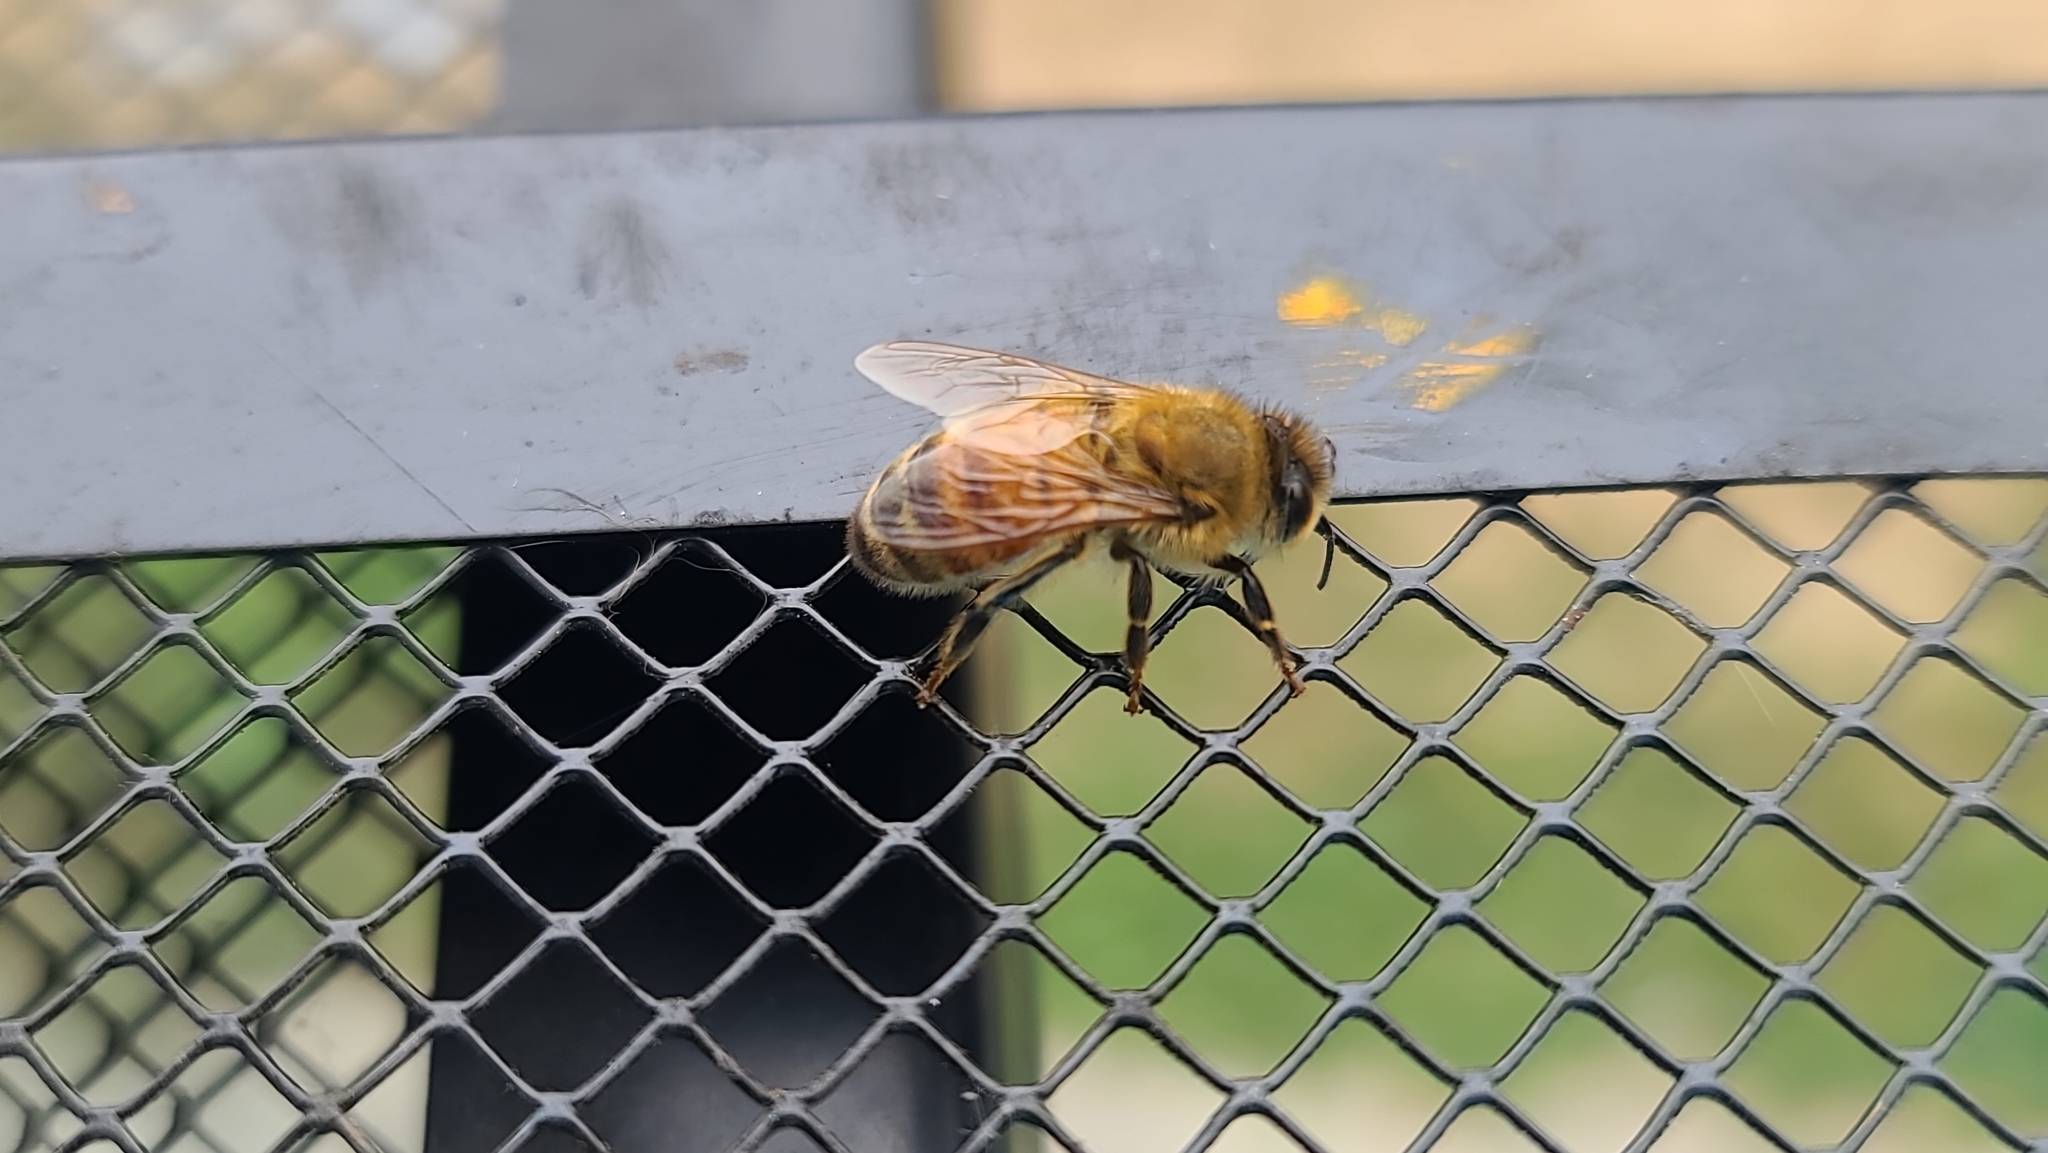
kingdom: Animalia
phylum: Arthropoda
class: Insecta
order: Hymenoptera
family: Apidae
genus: Apis
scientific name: Apis mellifera
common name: Honey bee
